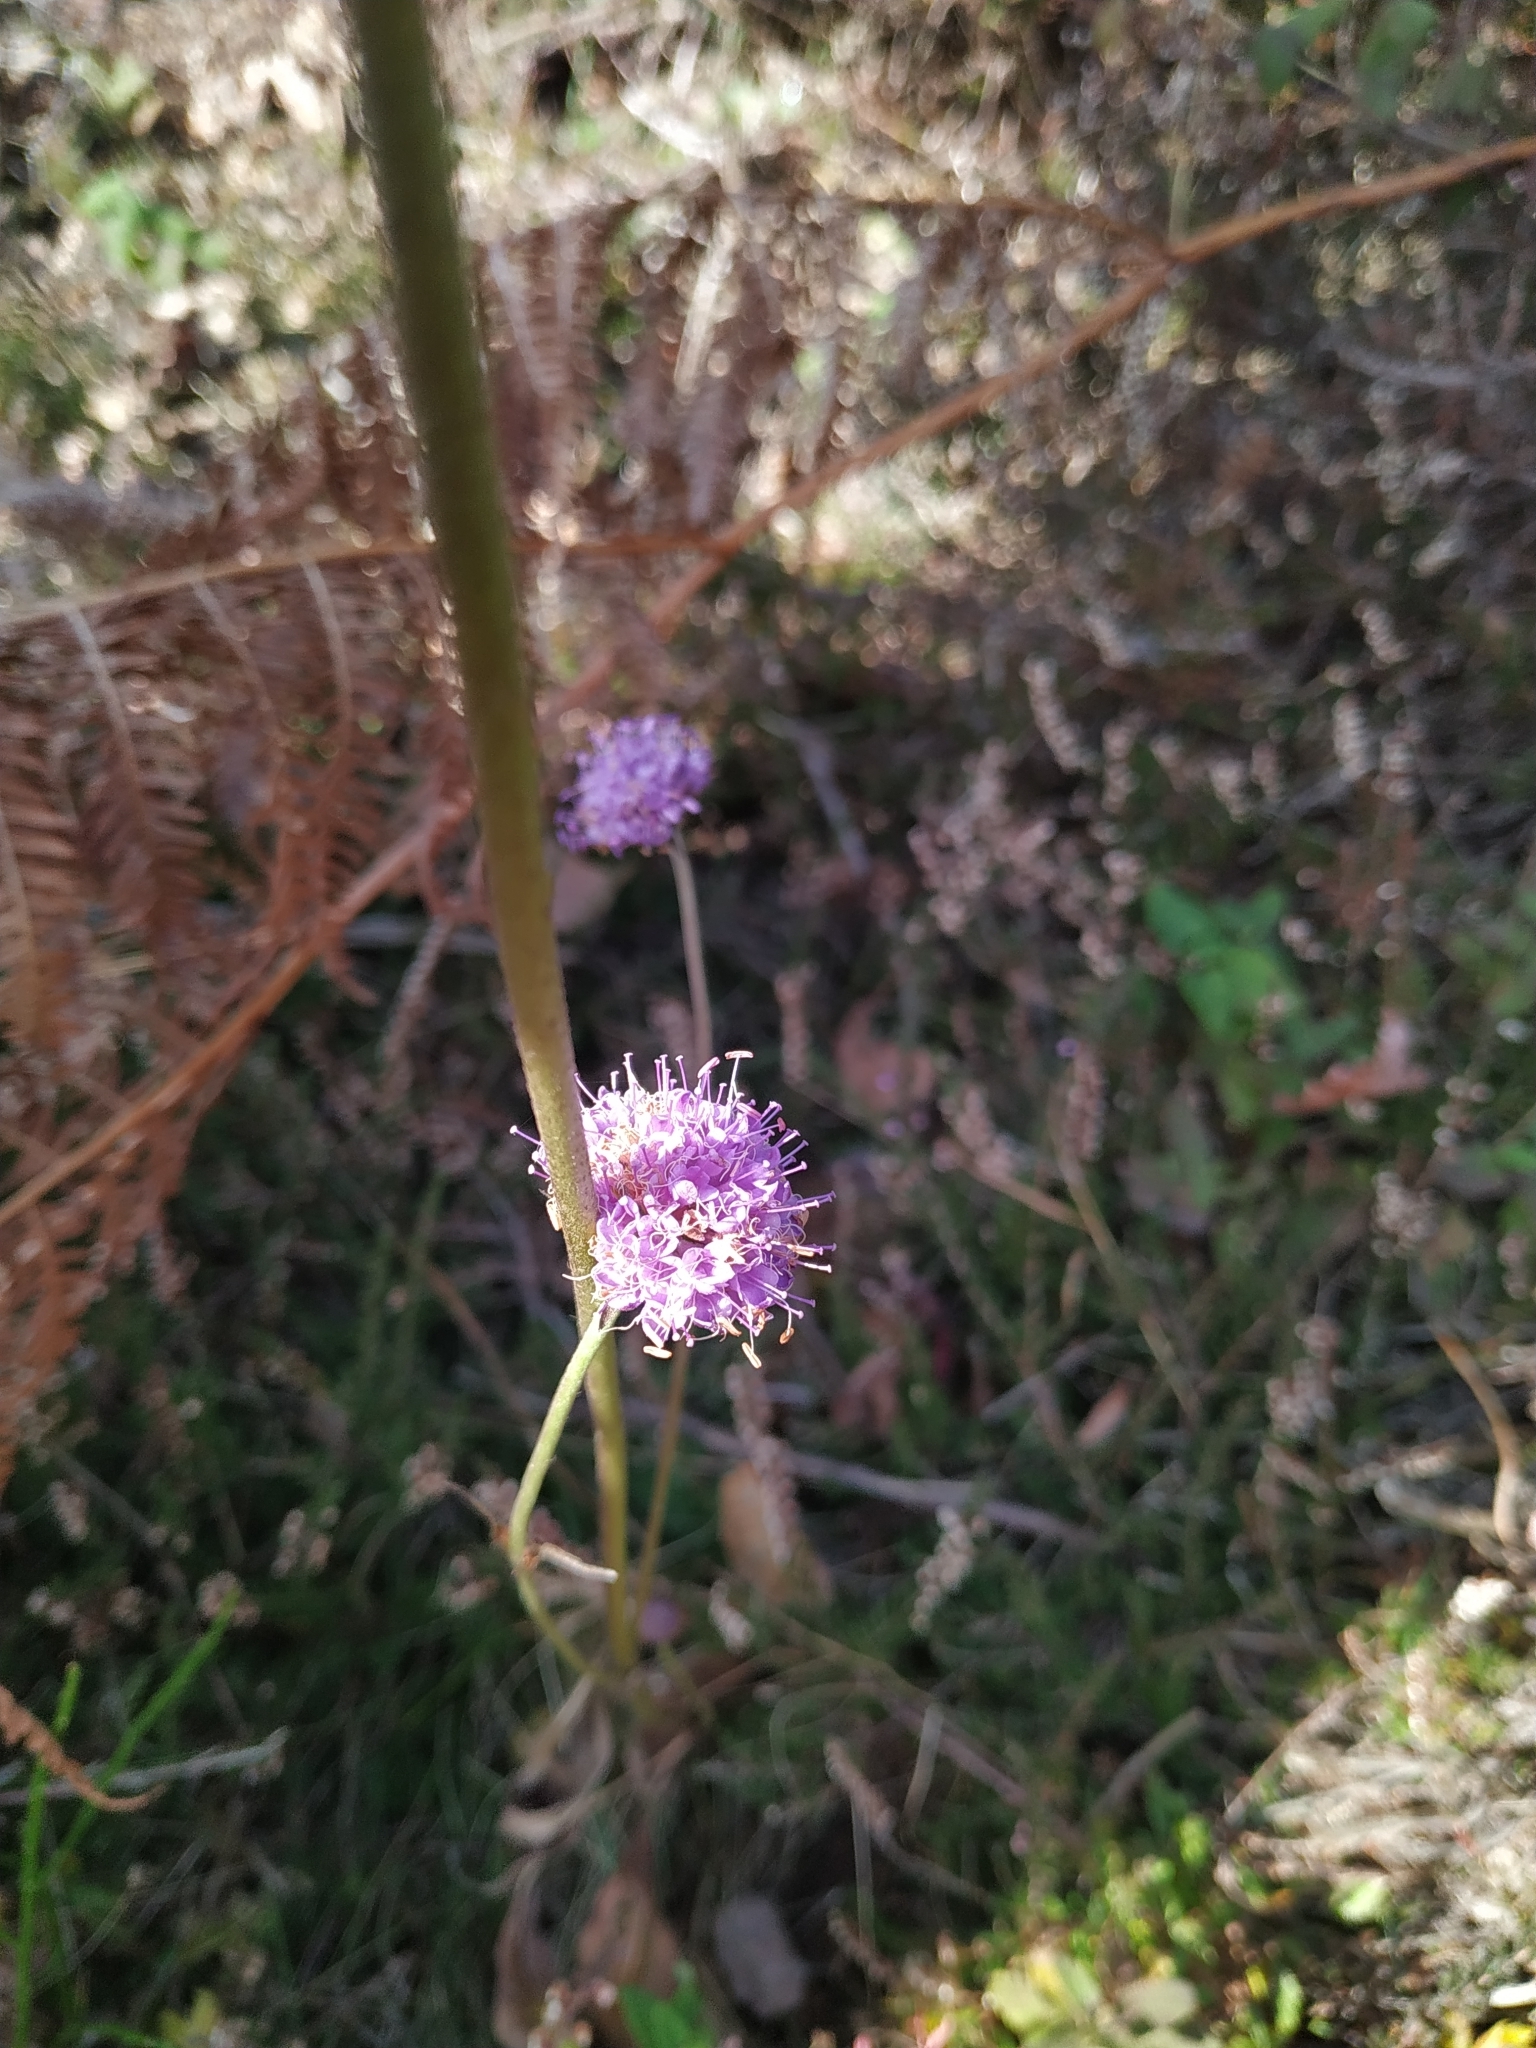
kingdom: Plantae
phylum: Tracheophyta
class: Magnoliopsida
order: Dipsacales
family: Caprifoliaceae
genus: Succisa
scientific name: Succisa pratensis
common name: Devil's-bit
